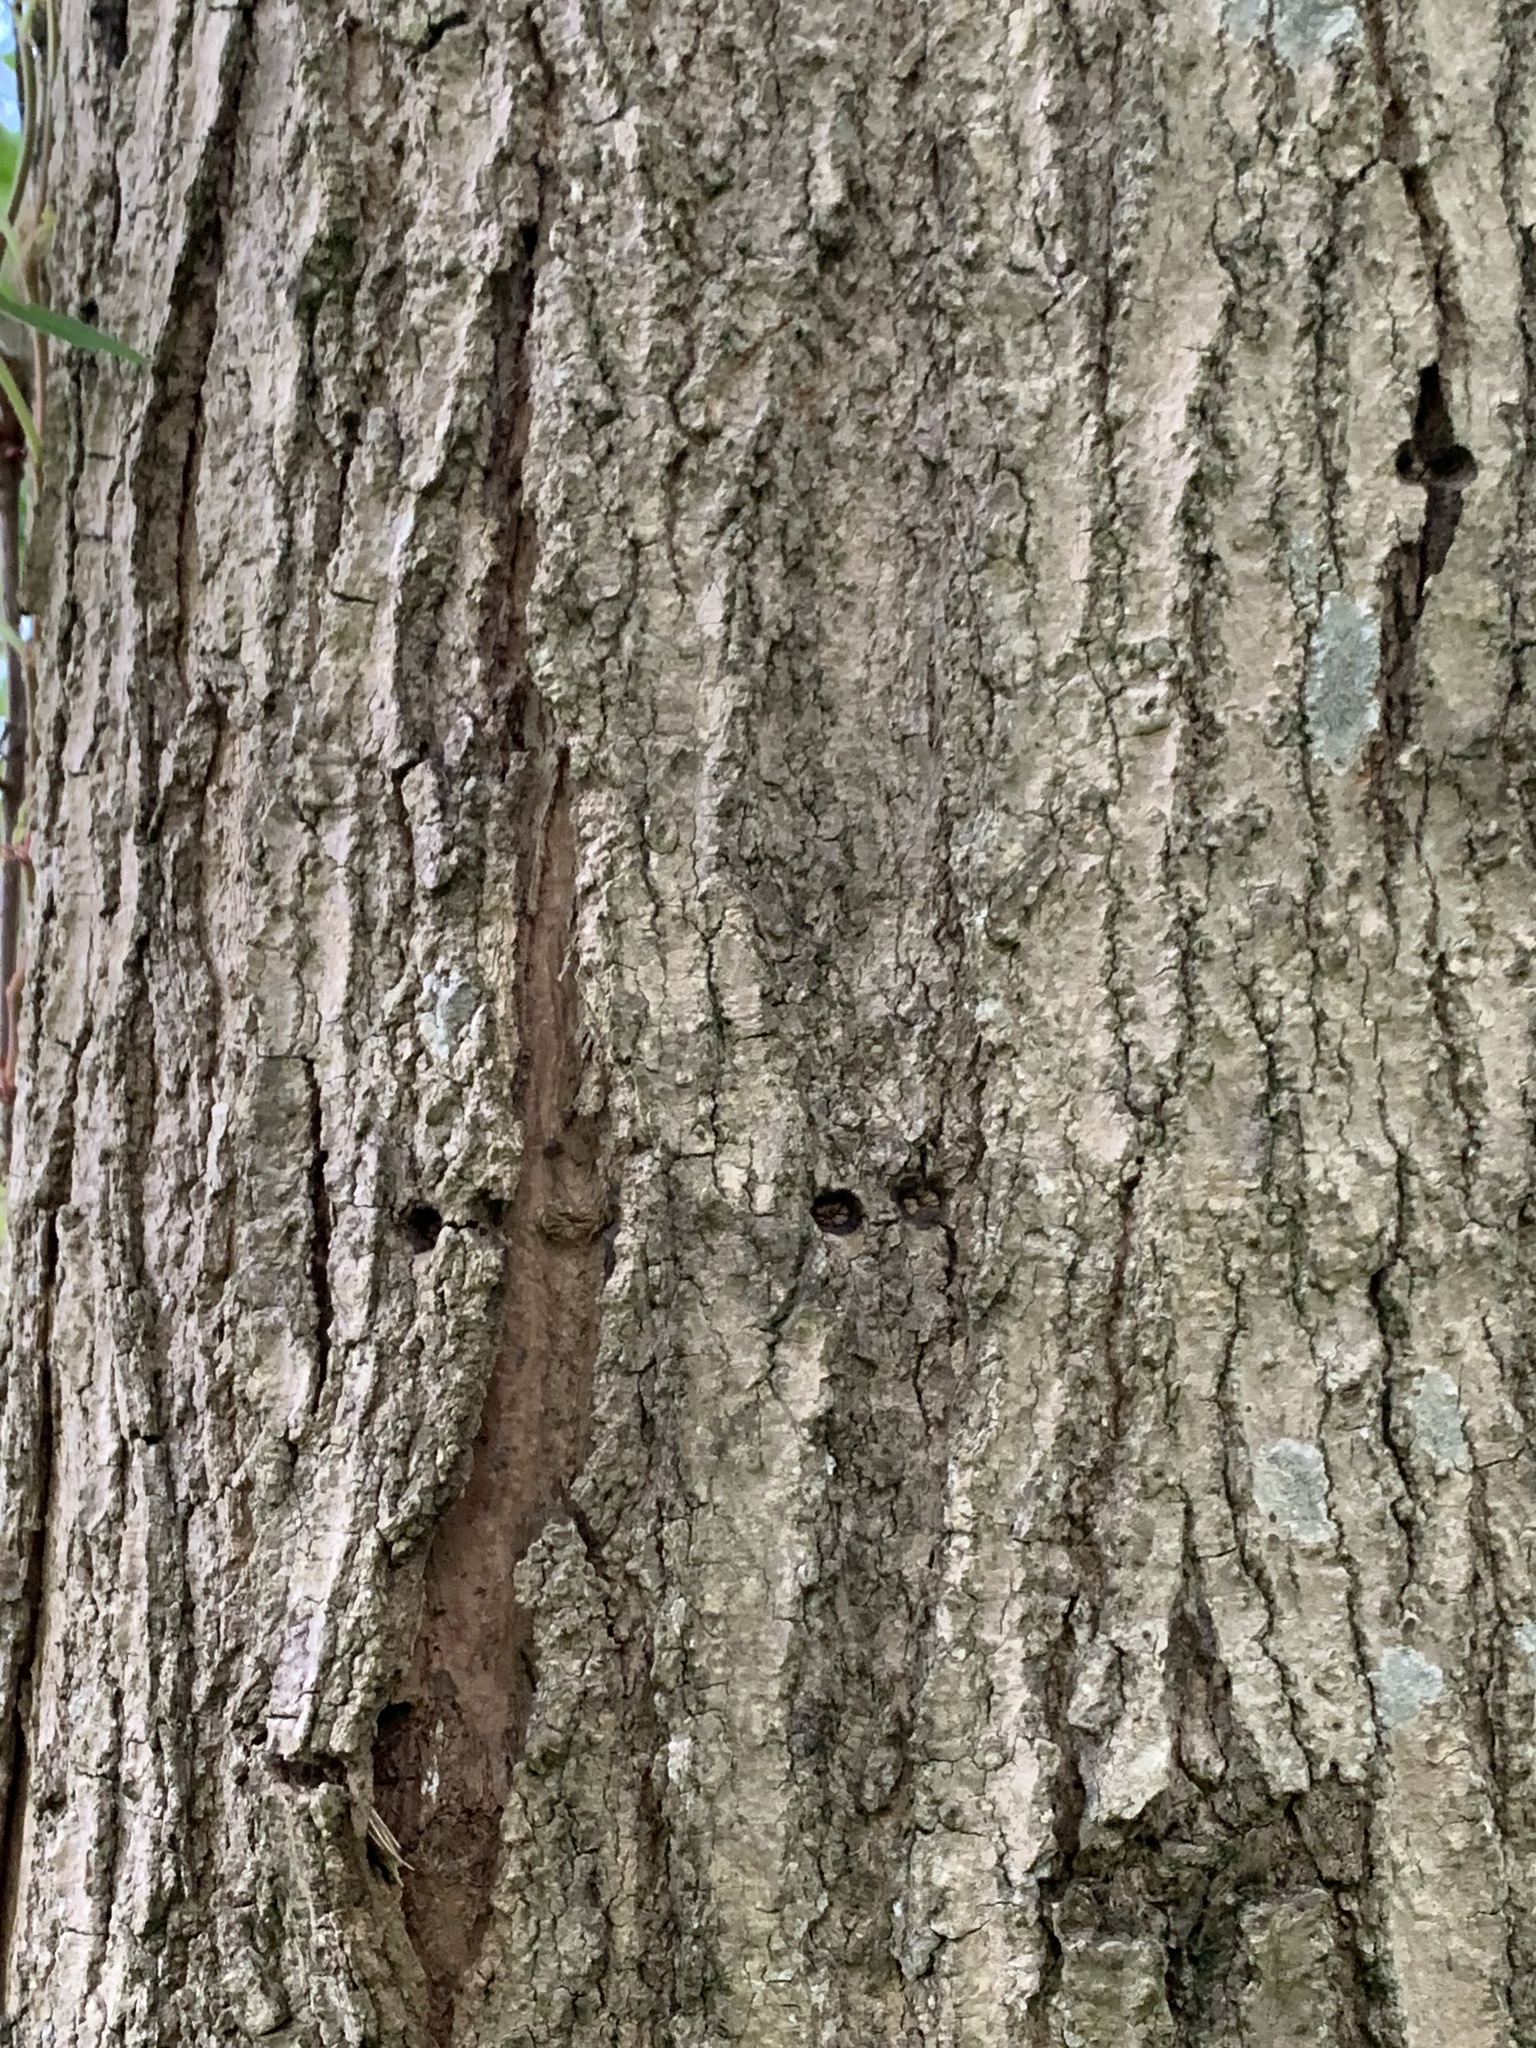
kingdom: Animalia
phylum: Chordata
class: Aves
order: Piciformes
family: Picidae
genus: Sphyrapicus
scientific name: Sphyrapicus varius
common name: Yellow-bellied sapsucker
